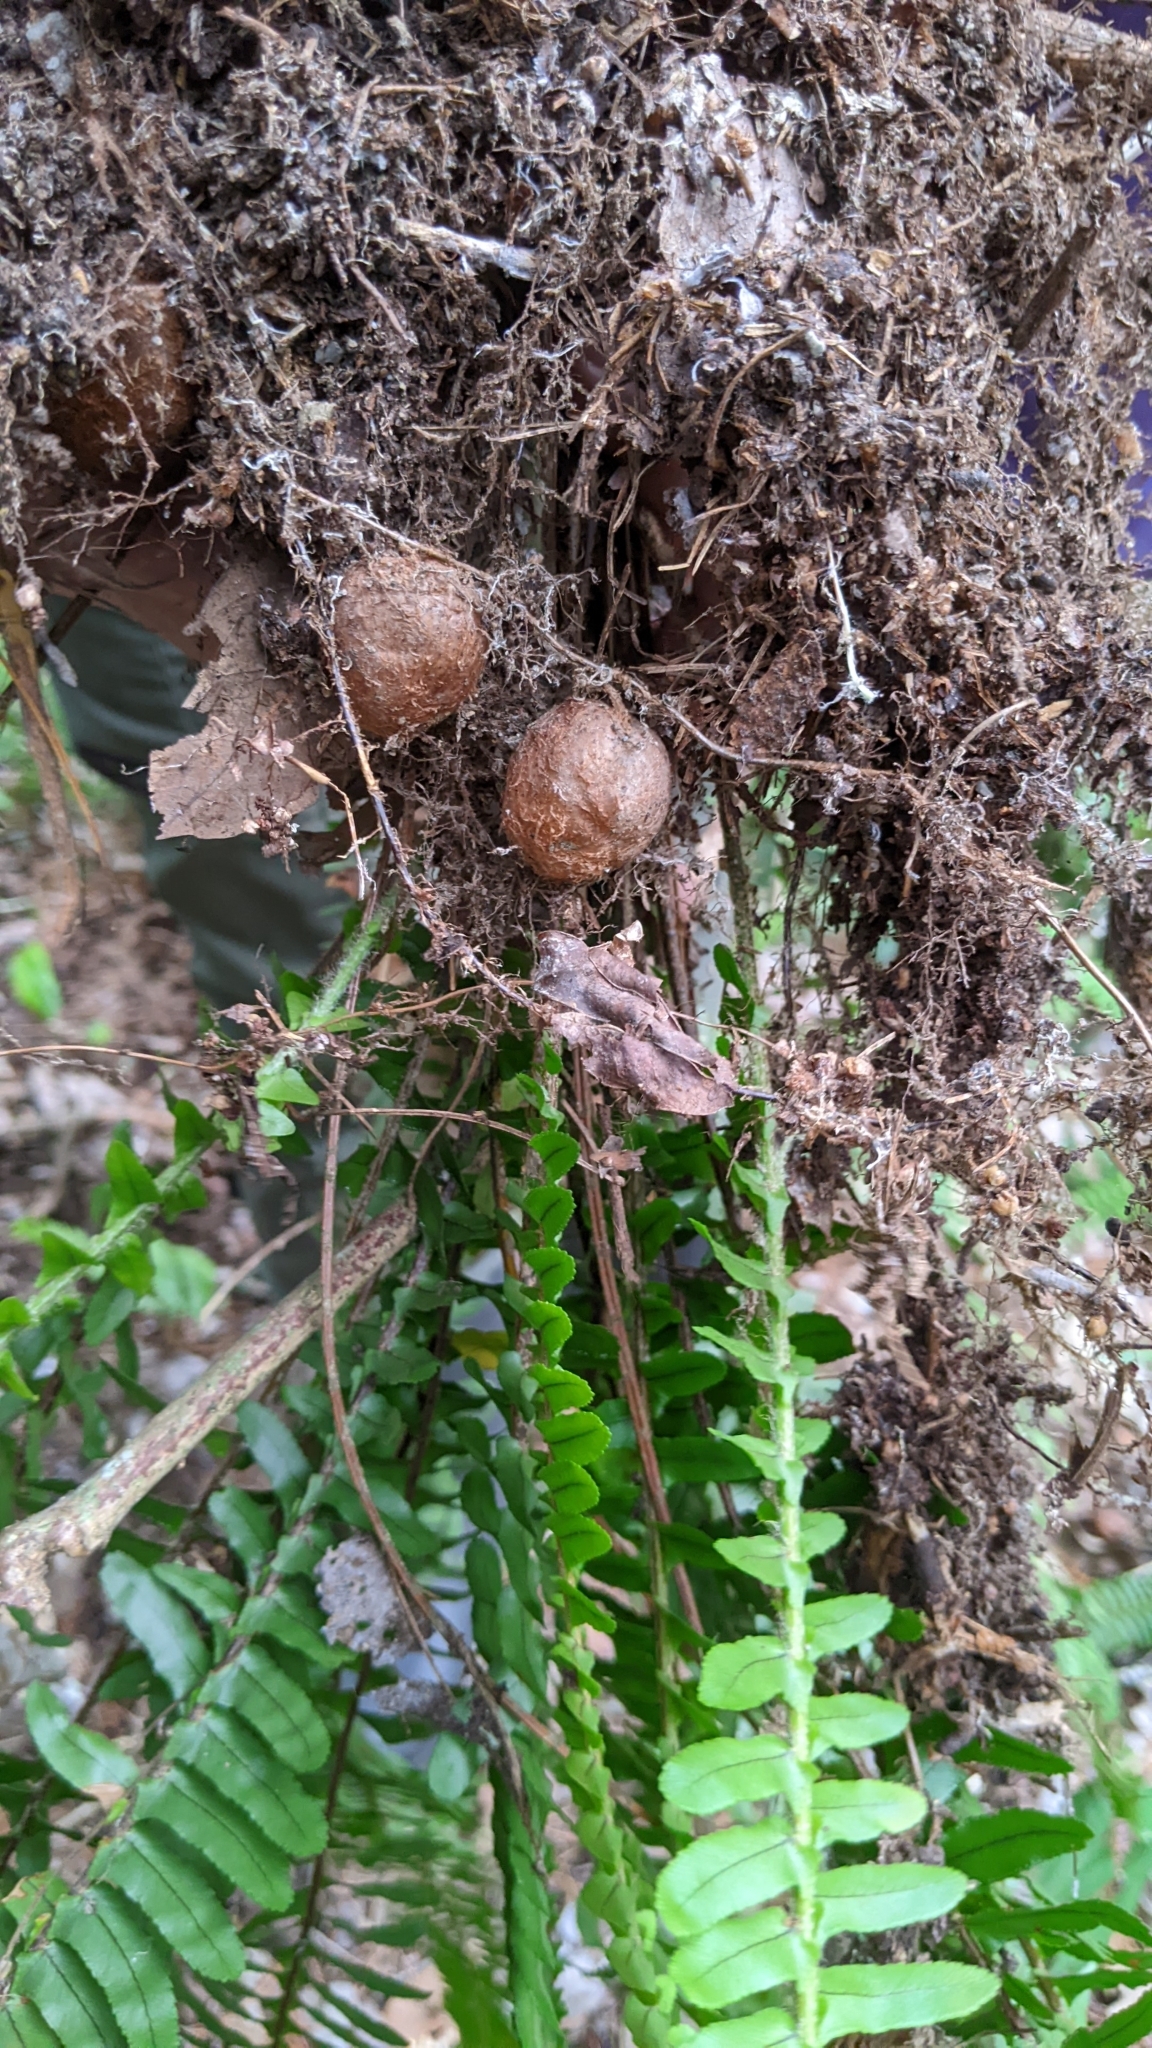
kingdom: Plantae
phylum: Tracheophyta
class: Polypodiopsida
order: Polypodiales
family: Nephrolepidaceae
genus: Nephrolepis
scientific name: Nephrolepis cordifolia
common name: Narrow swordfern
